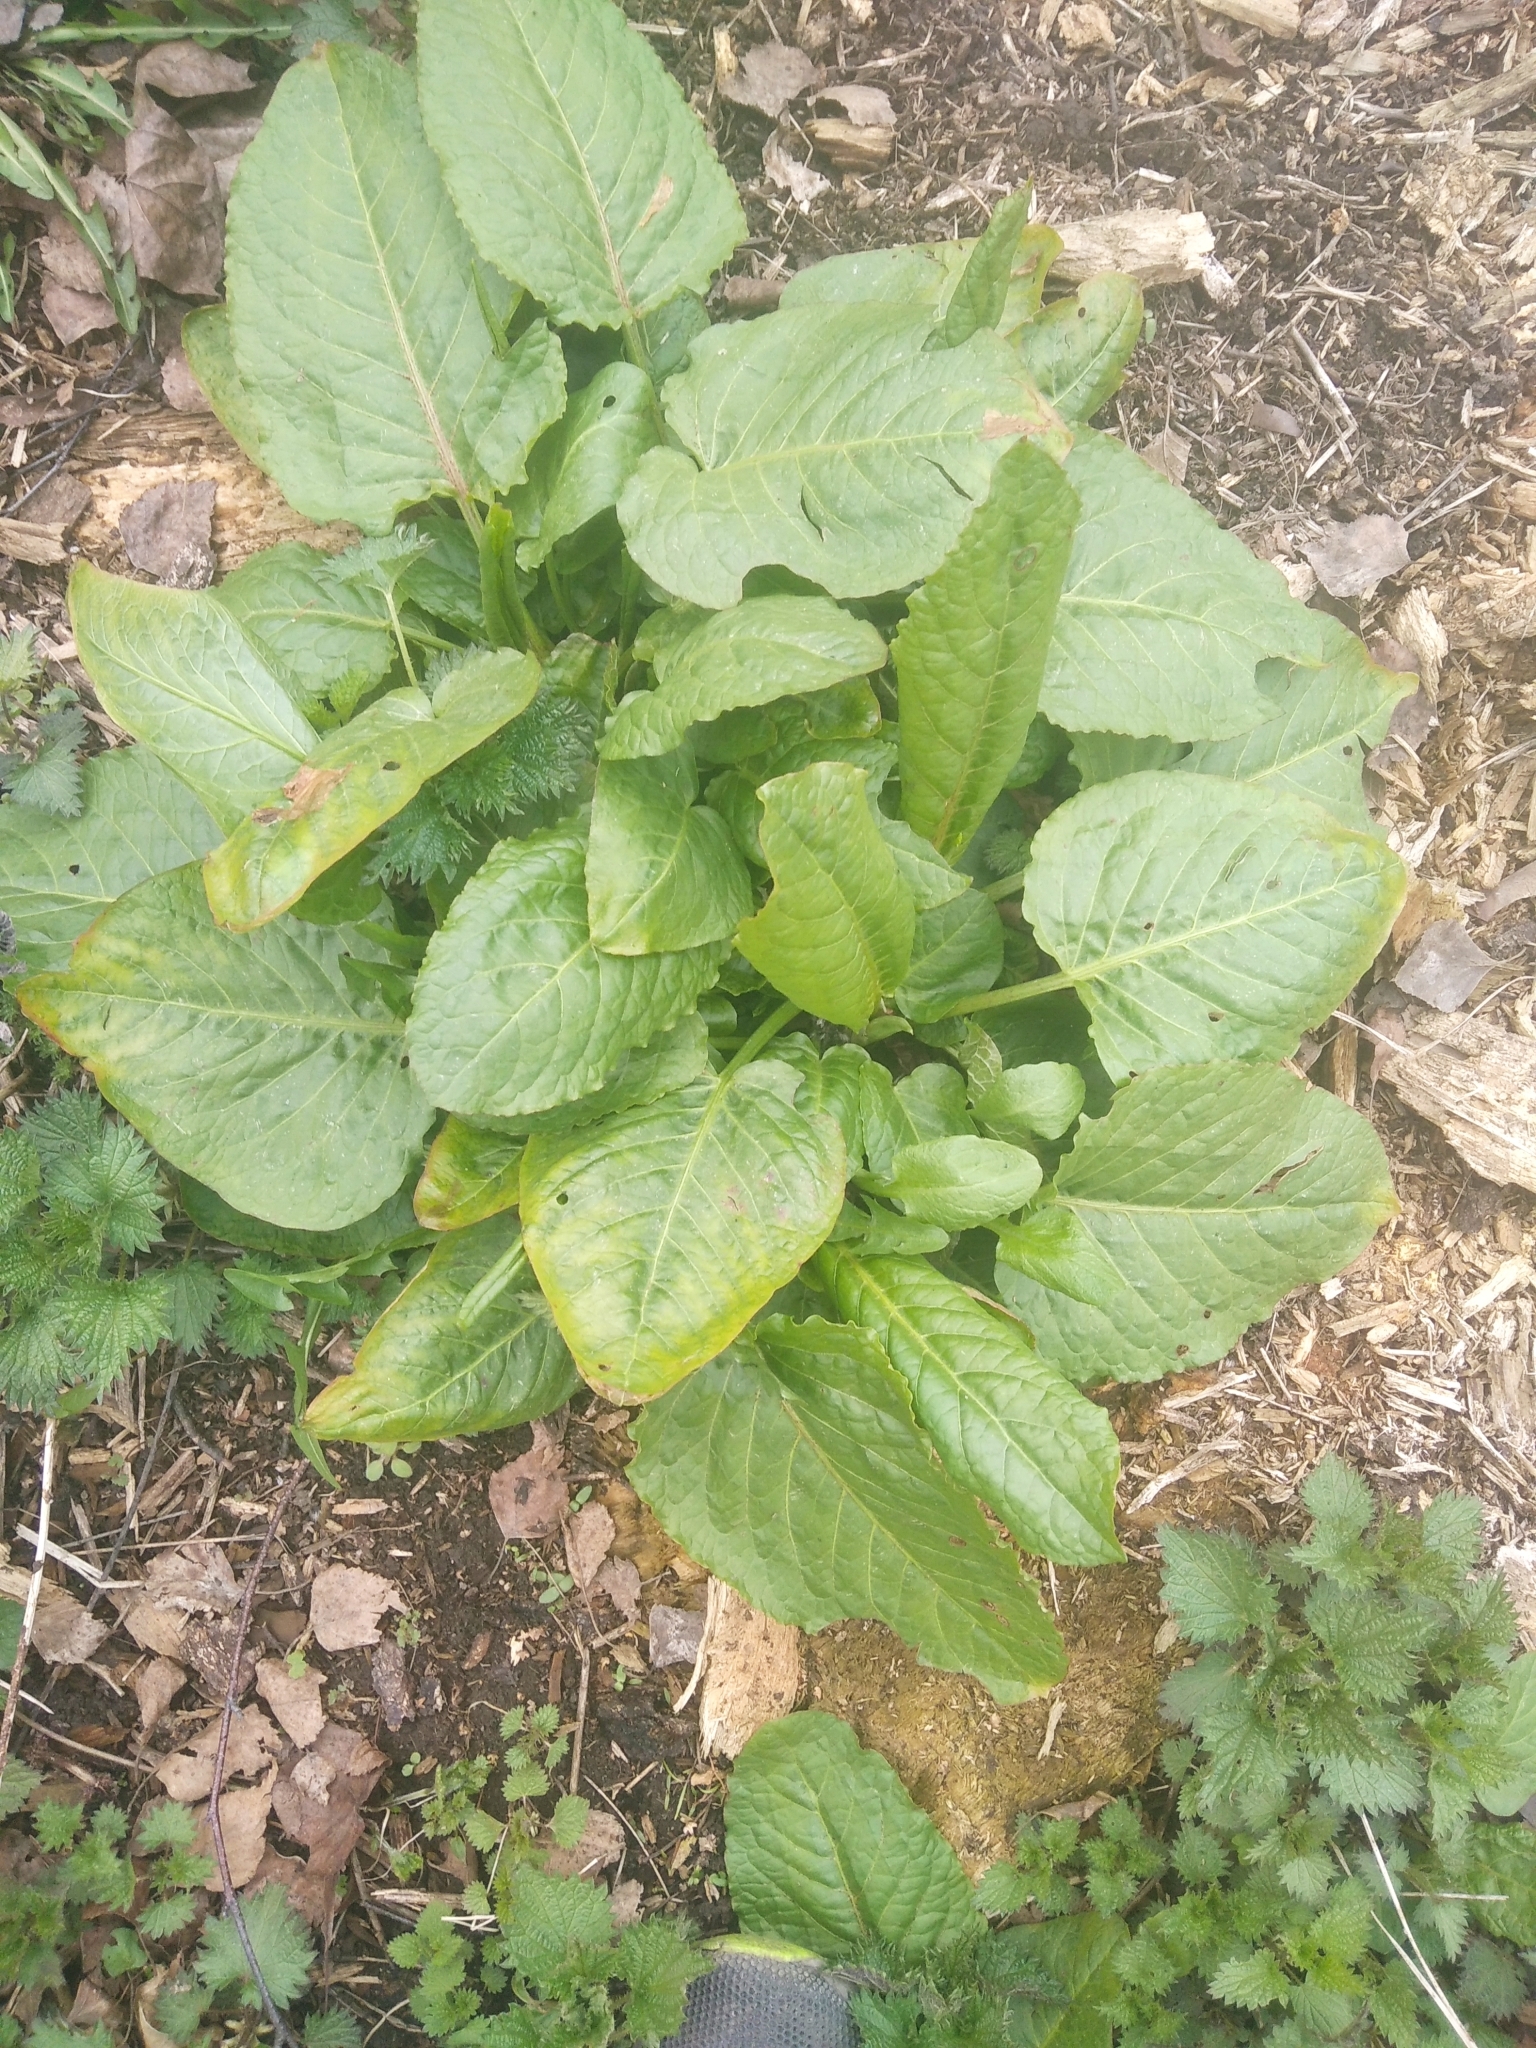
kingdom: Plantae
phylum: Tracheophyta
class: Magnoliopsida
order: Caryophyllales
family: Polygonaceae
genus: Rumex
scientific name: Rumex obtusifolius
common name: Bitter dock
